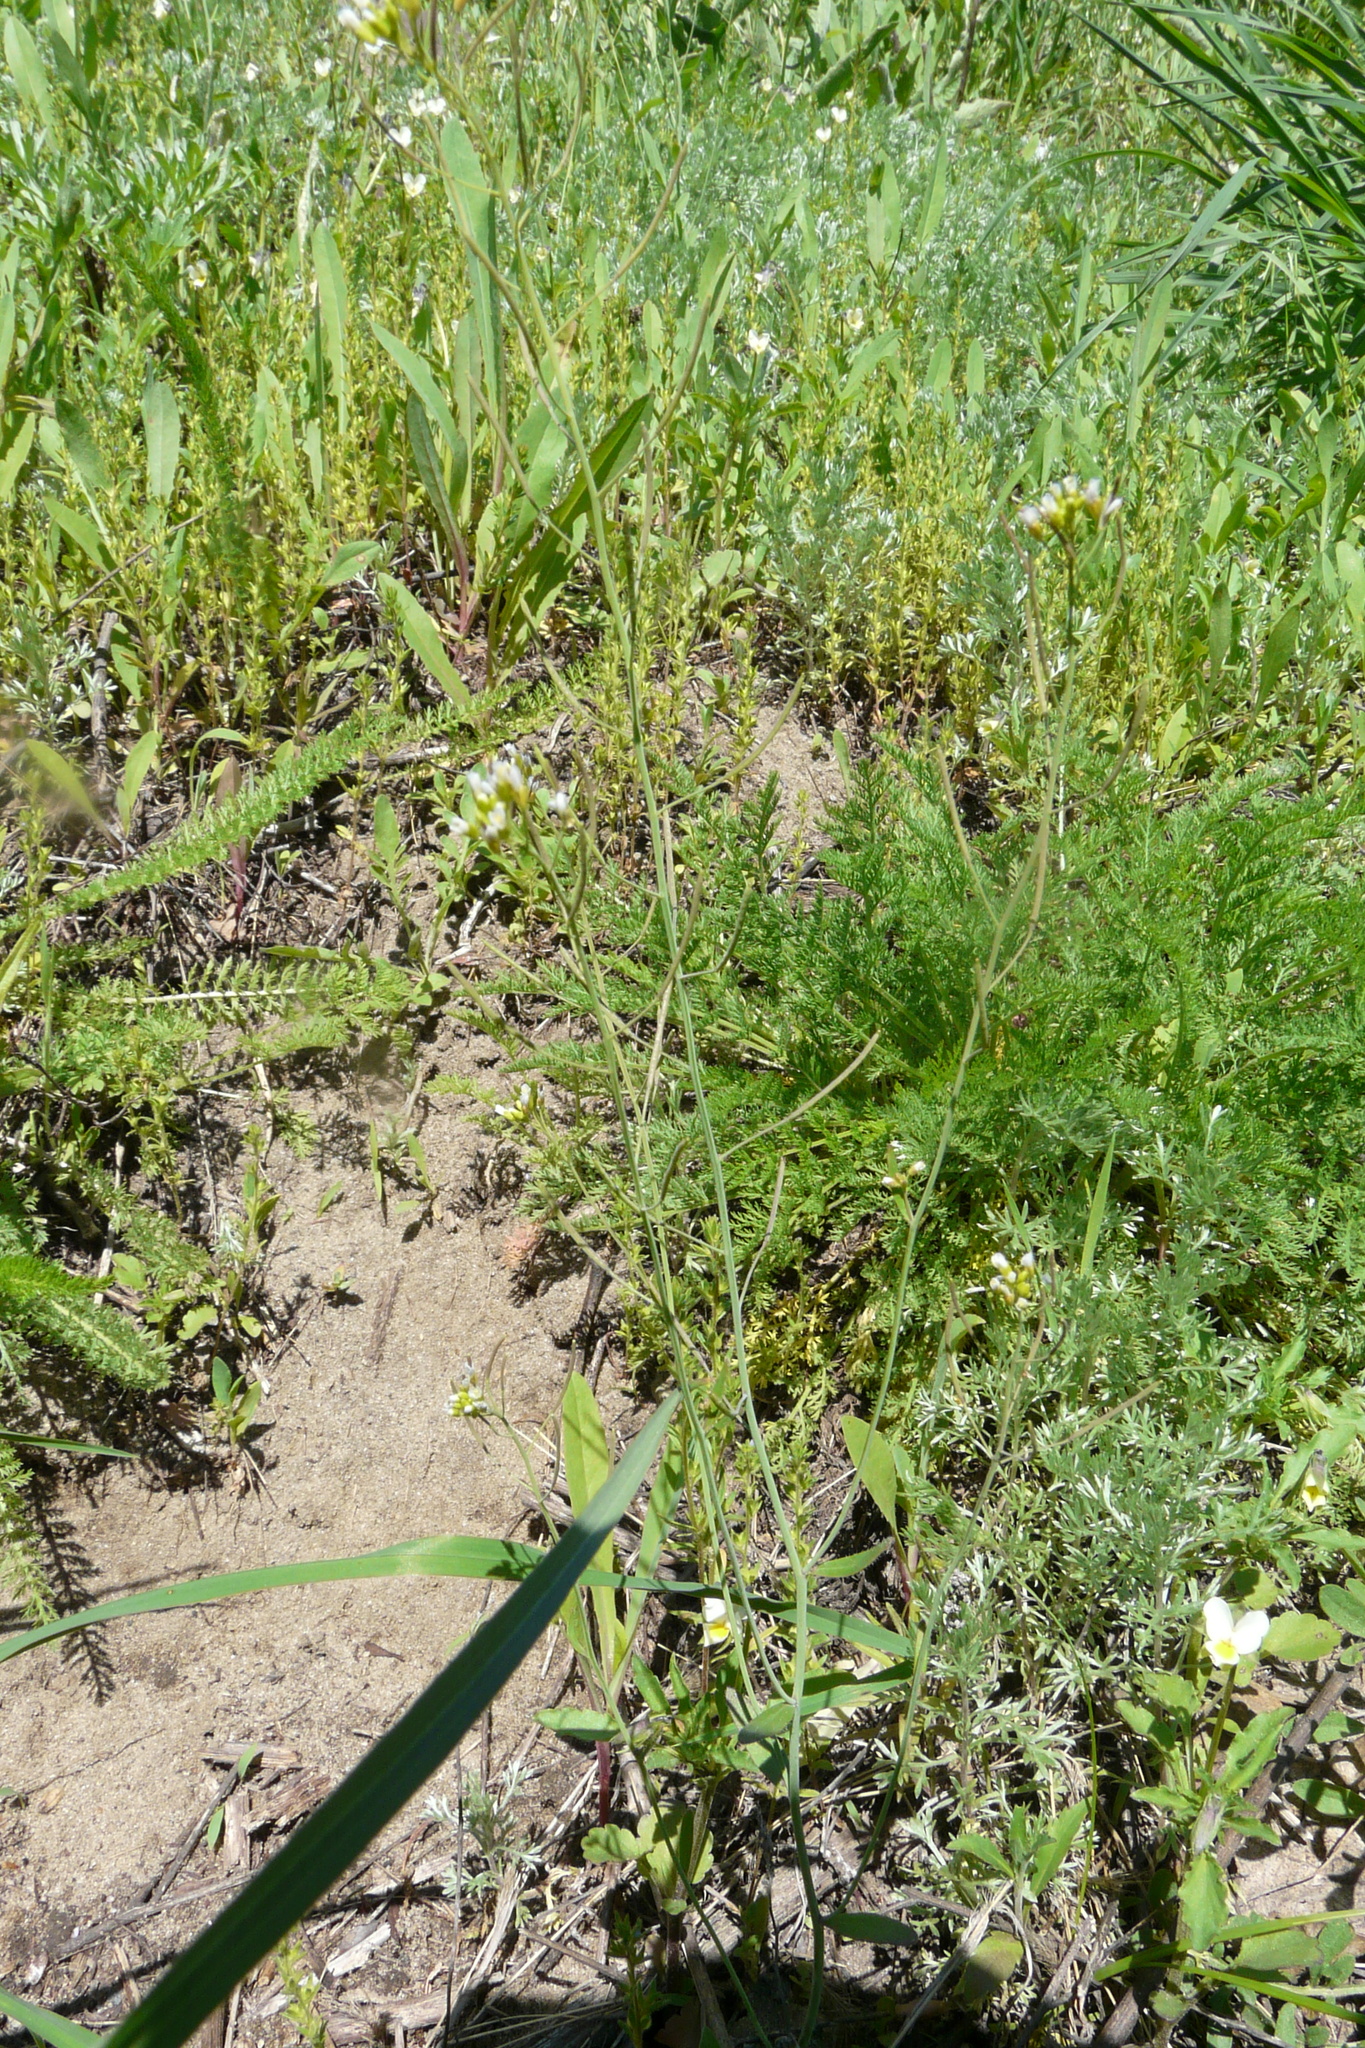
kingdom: Plantae
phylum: Tracheophyta
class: Magnoliopsida
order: Brassicales
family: Brassicaceae
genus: Arabidopsis
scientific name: Arabidopsis thaliana
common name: Thale cress
